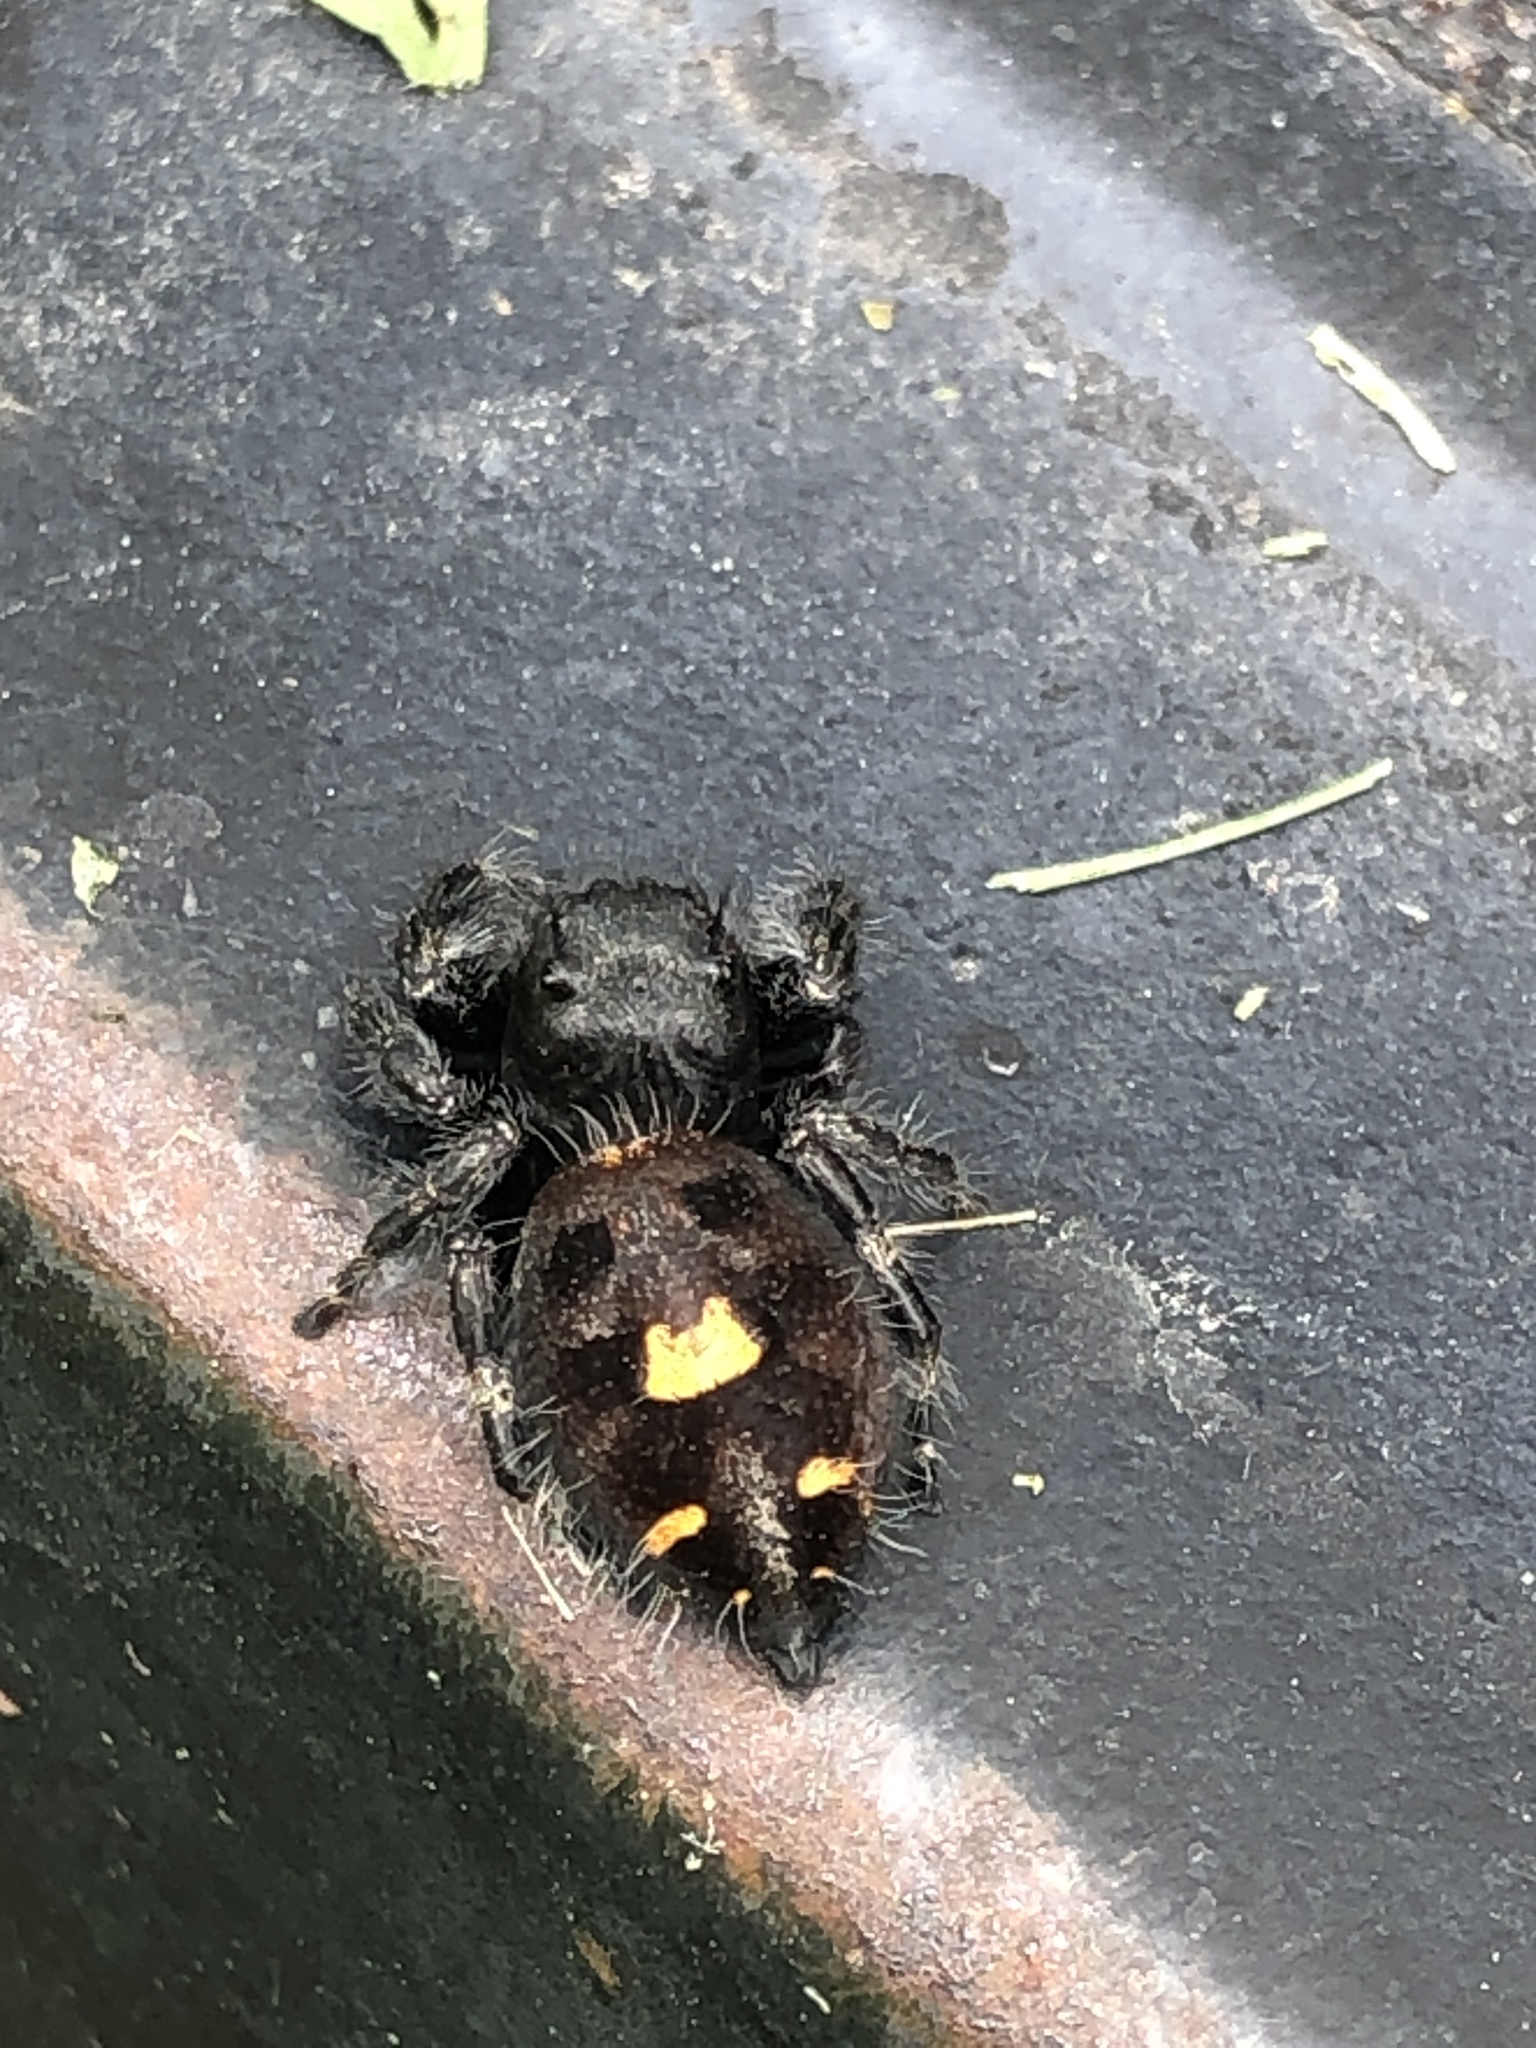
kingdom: Animalia
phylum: Arthropoda
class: Arachnida
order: Araneae
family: Salticidae
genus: Phidippus
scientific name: Phidippus audax
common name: Bold jumper
